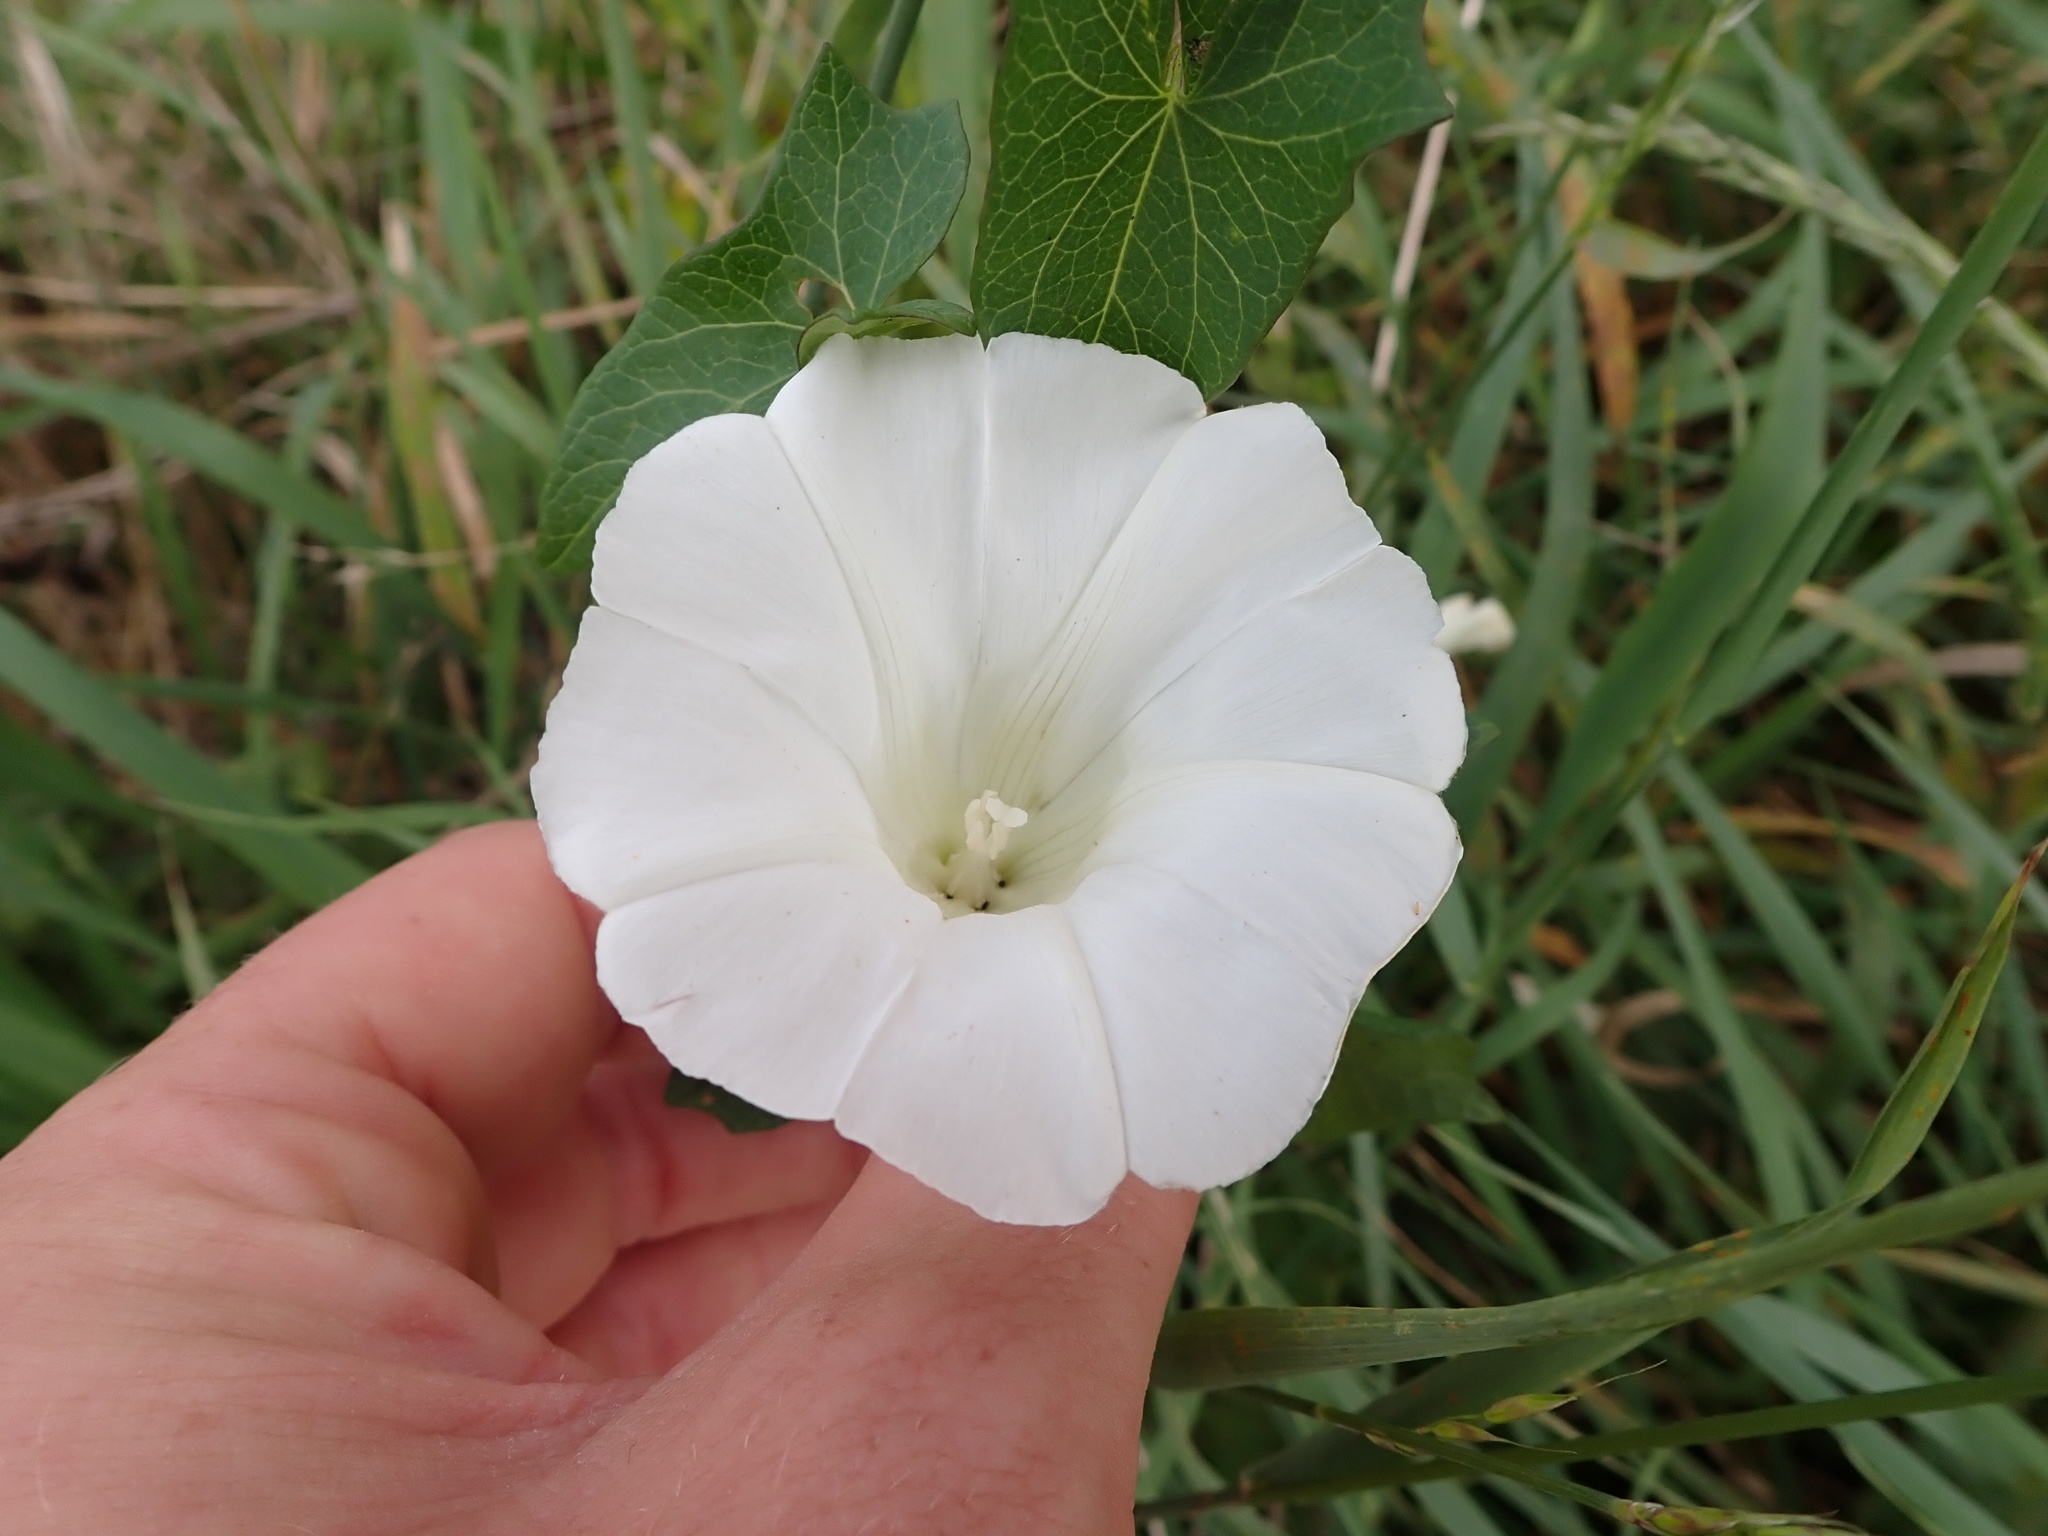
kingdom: Plantae
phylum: Tracheophyta
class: Magnoliopsida
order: Solanales
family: Convolvulaceae
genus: Calystegia
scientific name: Calystegia
